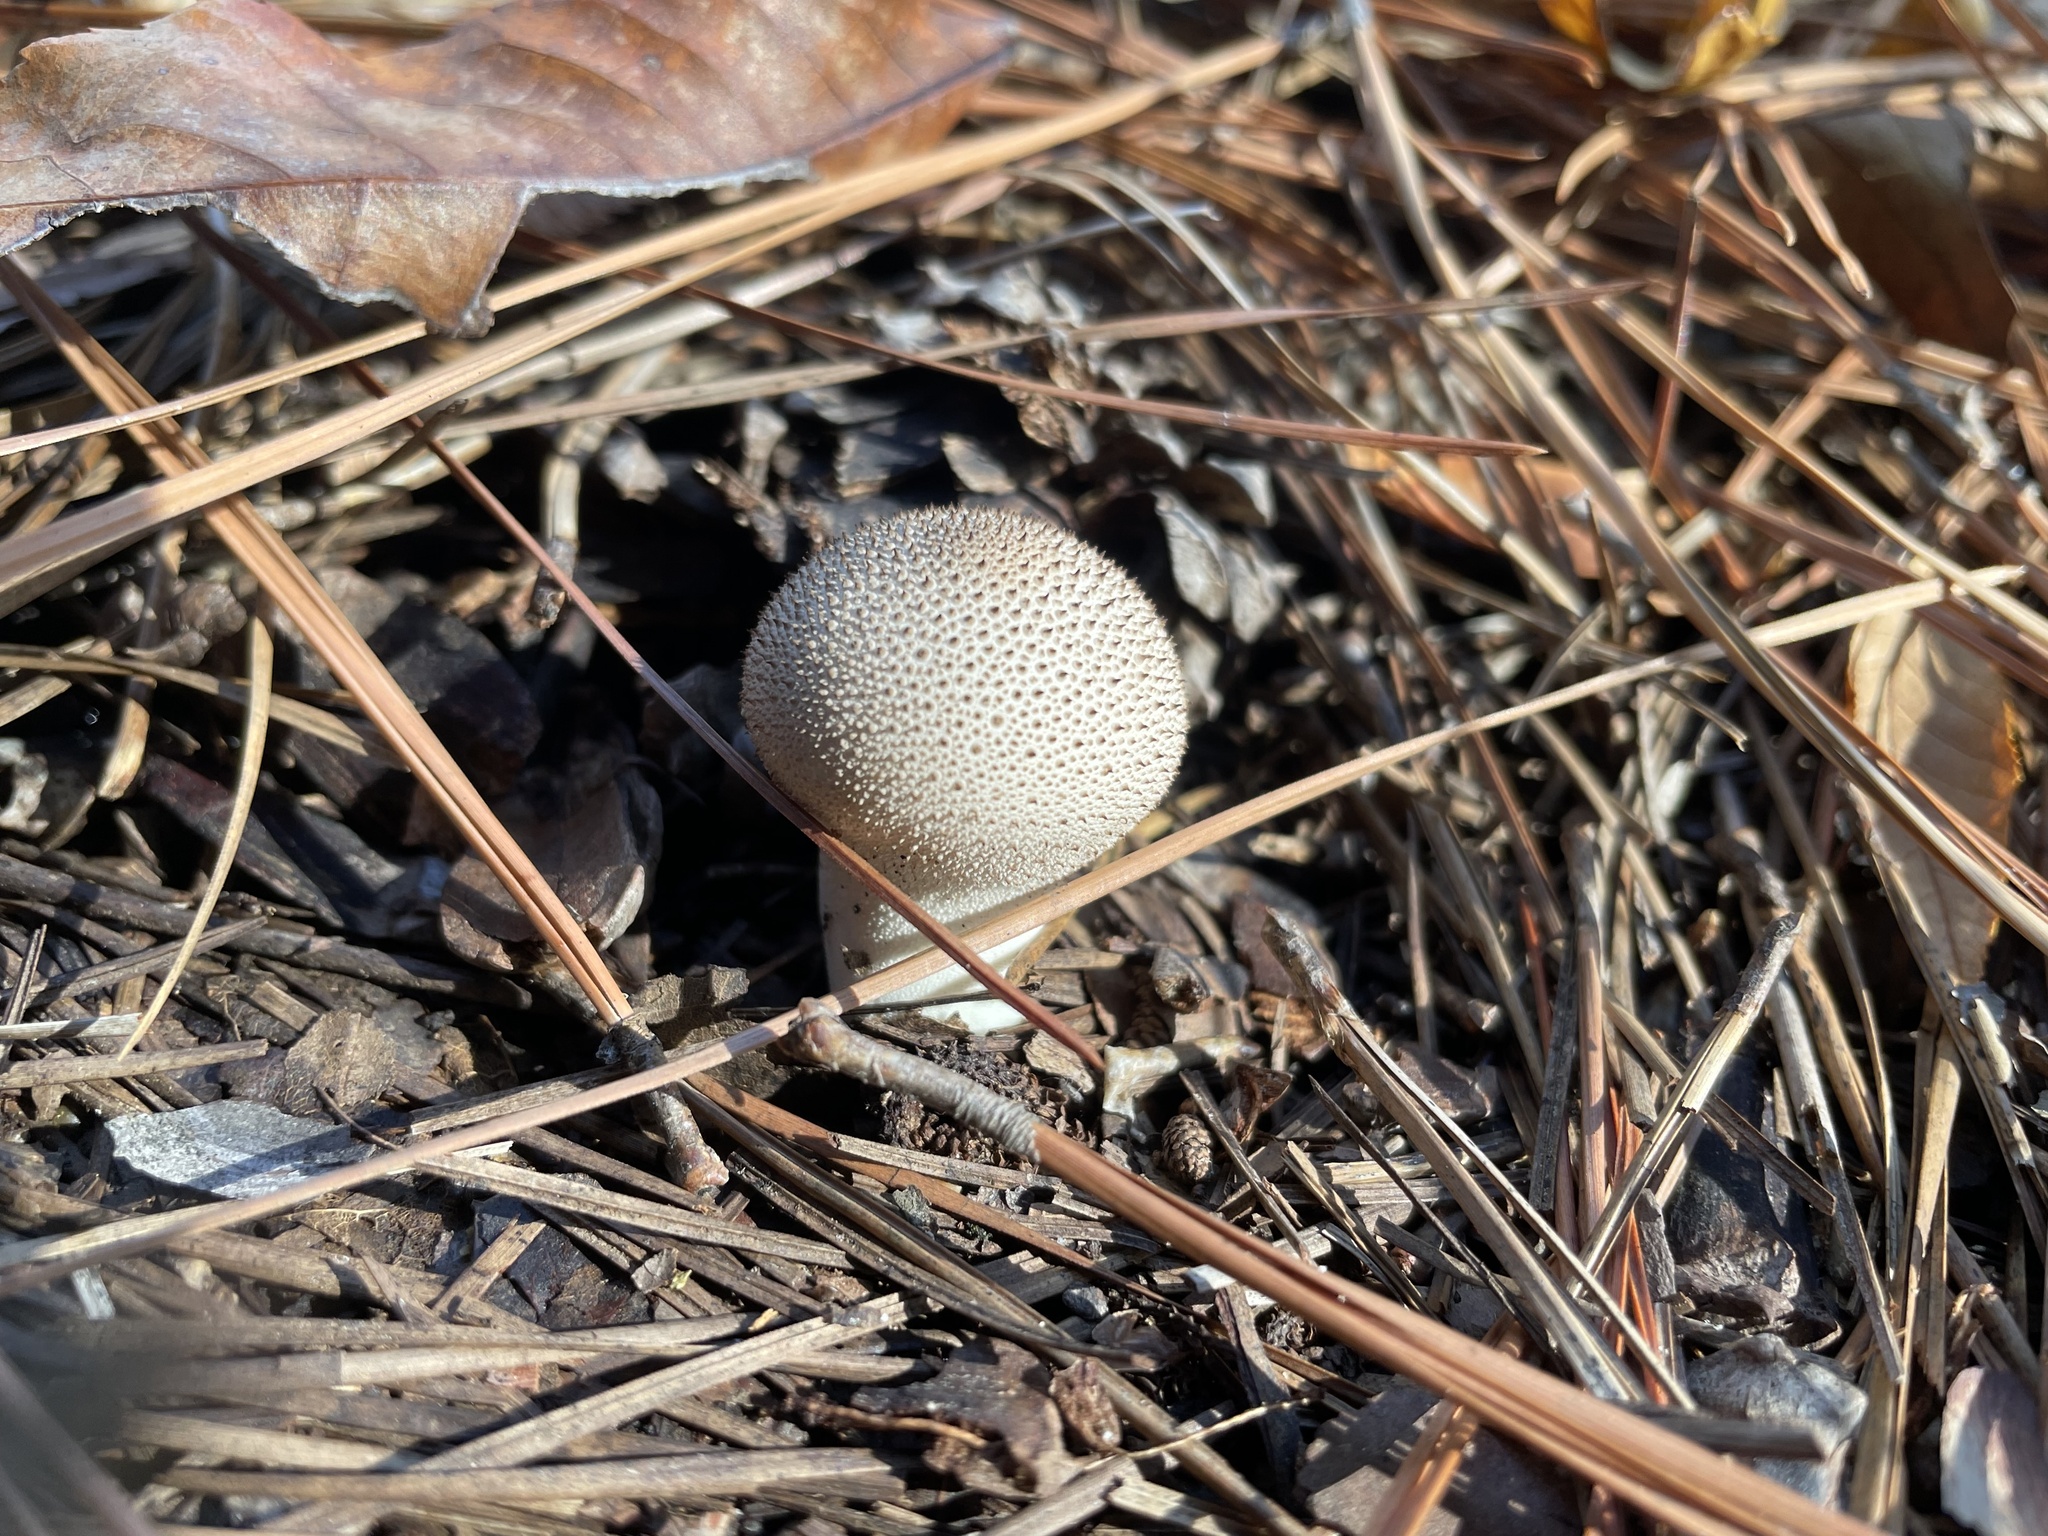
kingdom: Fungi
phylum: Basidiomycota
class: Agaricomycetes
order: Agaricales
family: Lycoperdaceae
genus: Lycoperdon
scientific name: Lycoperdon perlatum
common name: Common puffball
